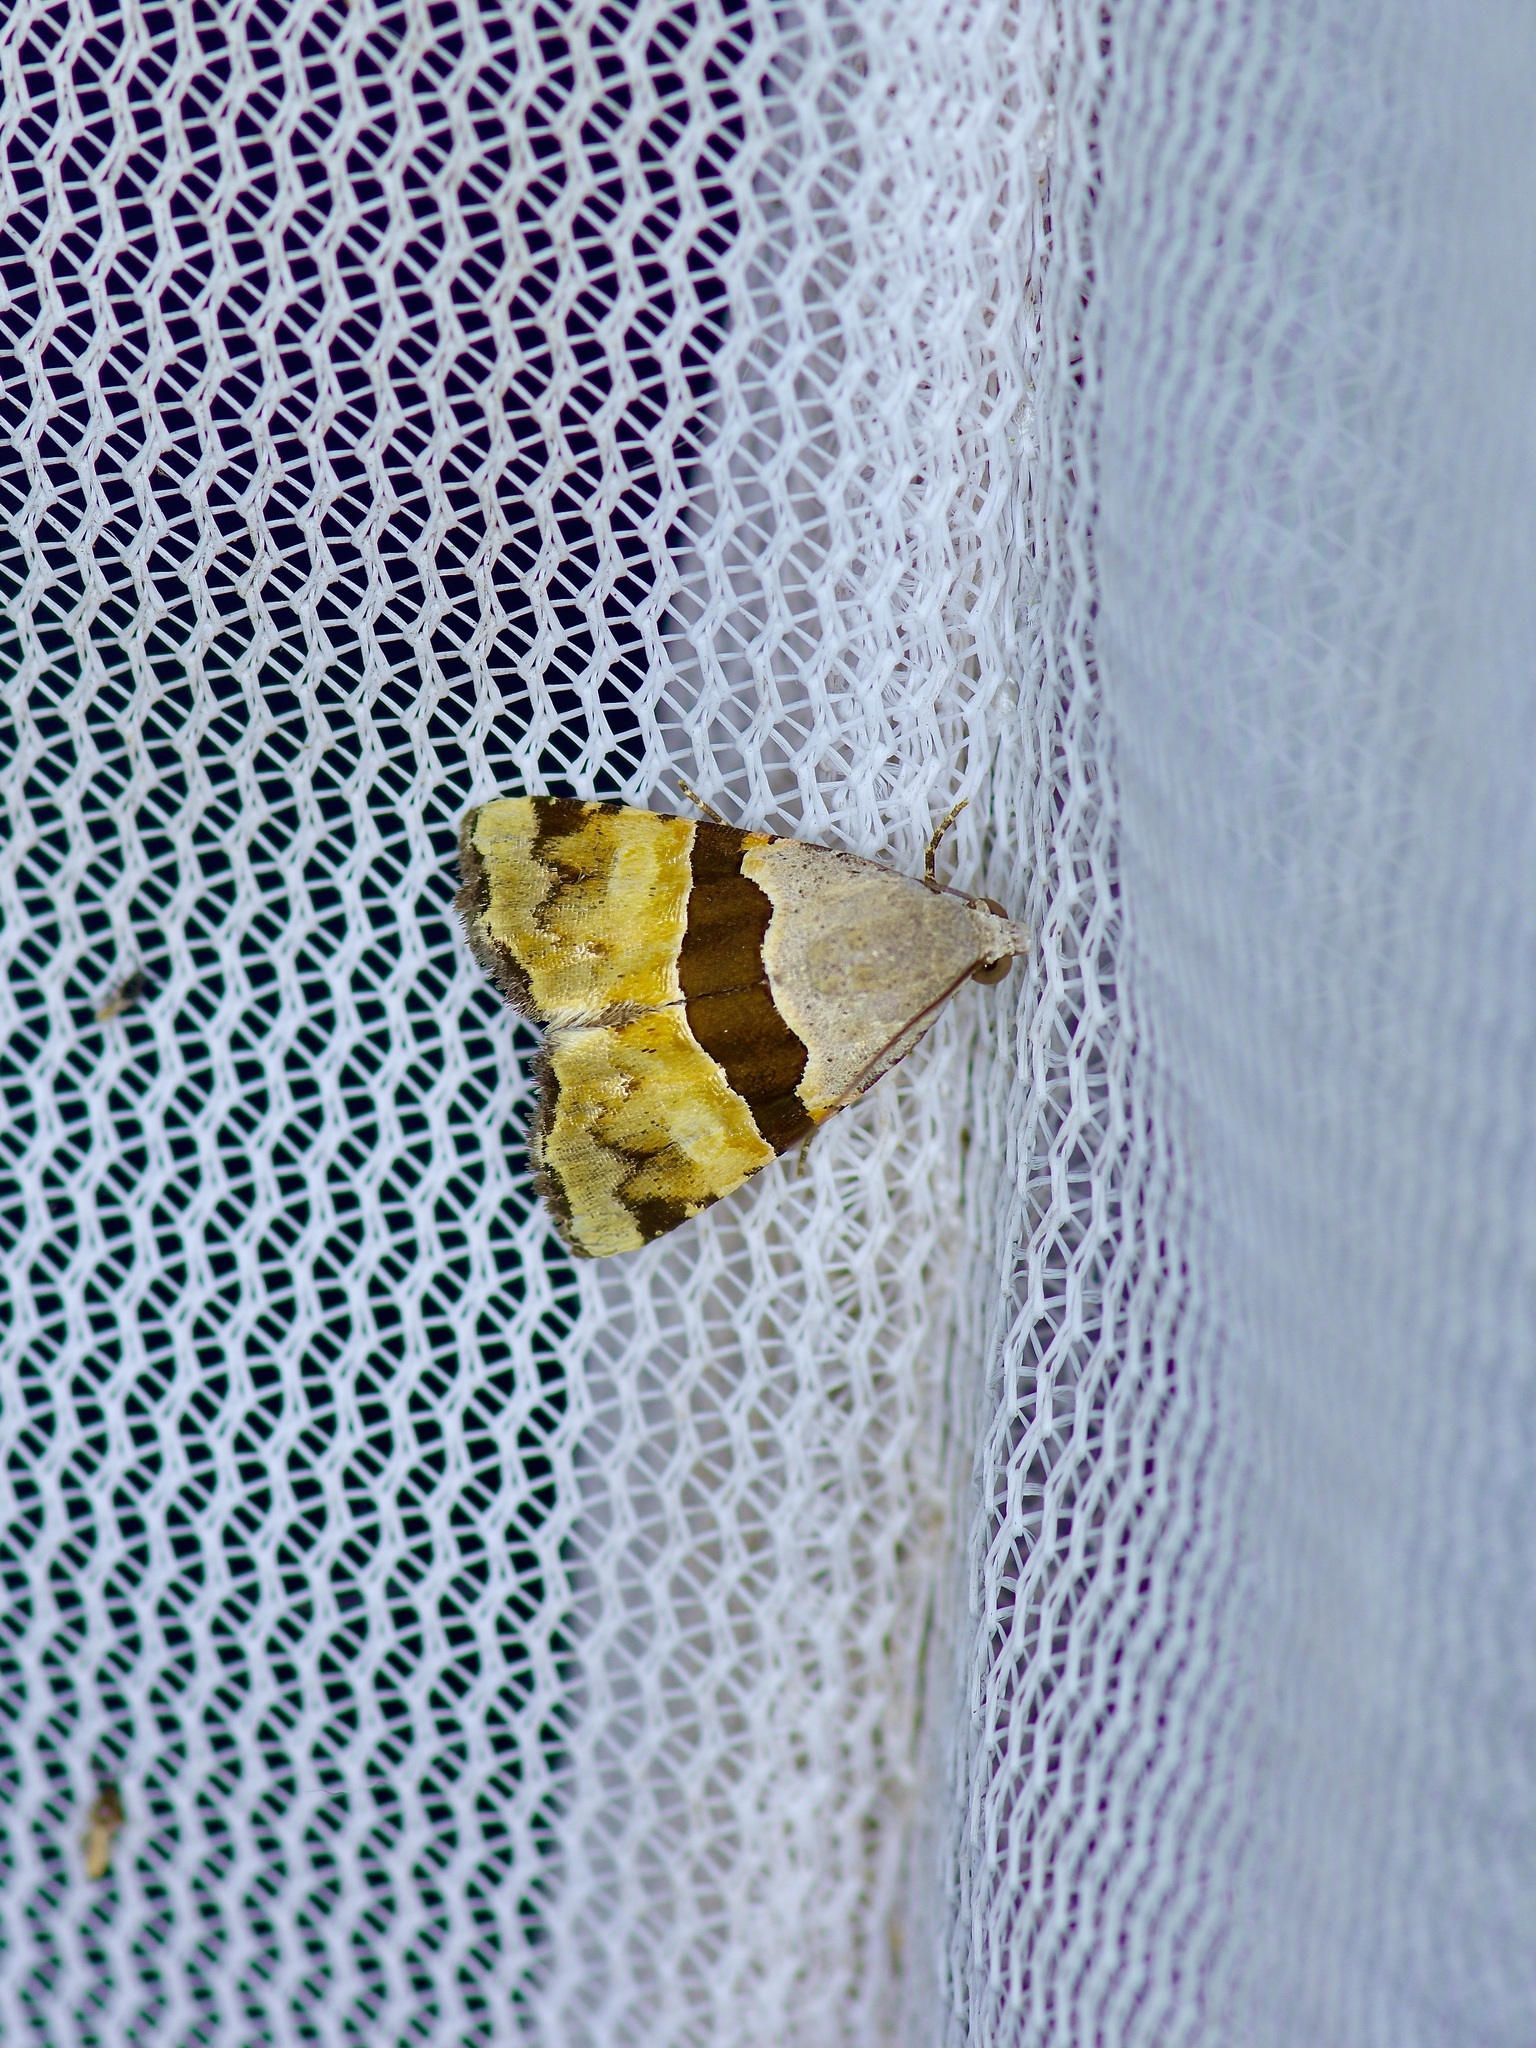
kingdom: Animalia
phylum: Arthropoda
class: Insecta
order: Lepidoptera
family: Noctuidae
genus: Cobubatha
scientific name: Cobubatha lixiva
